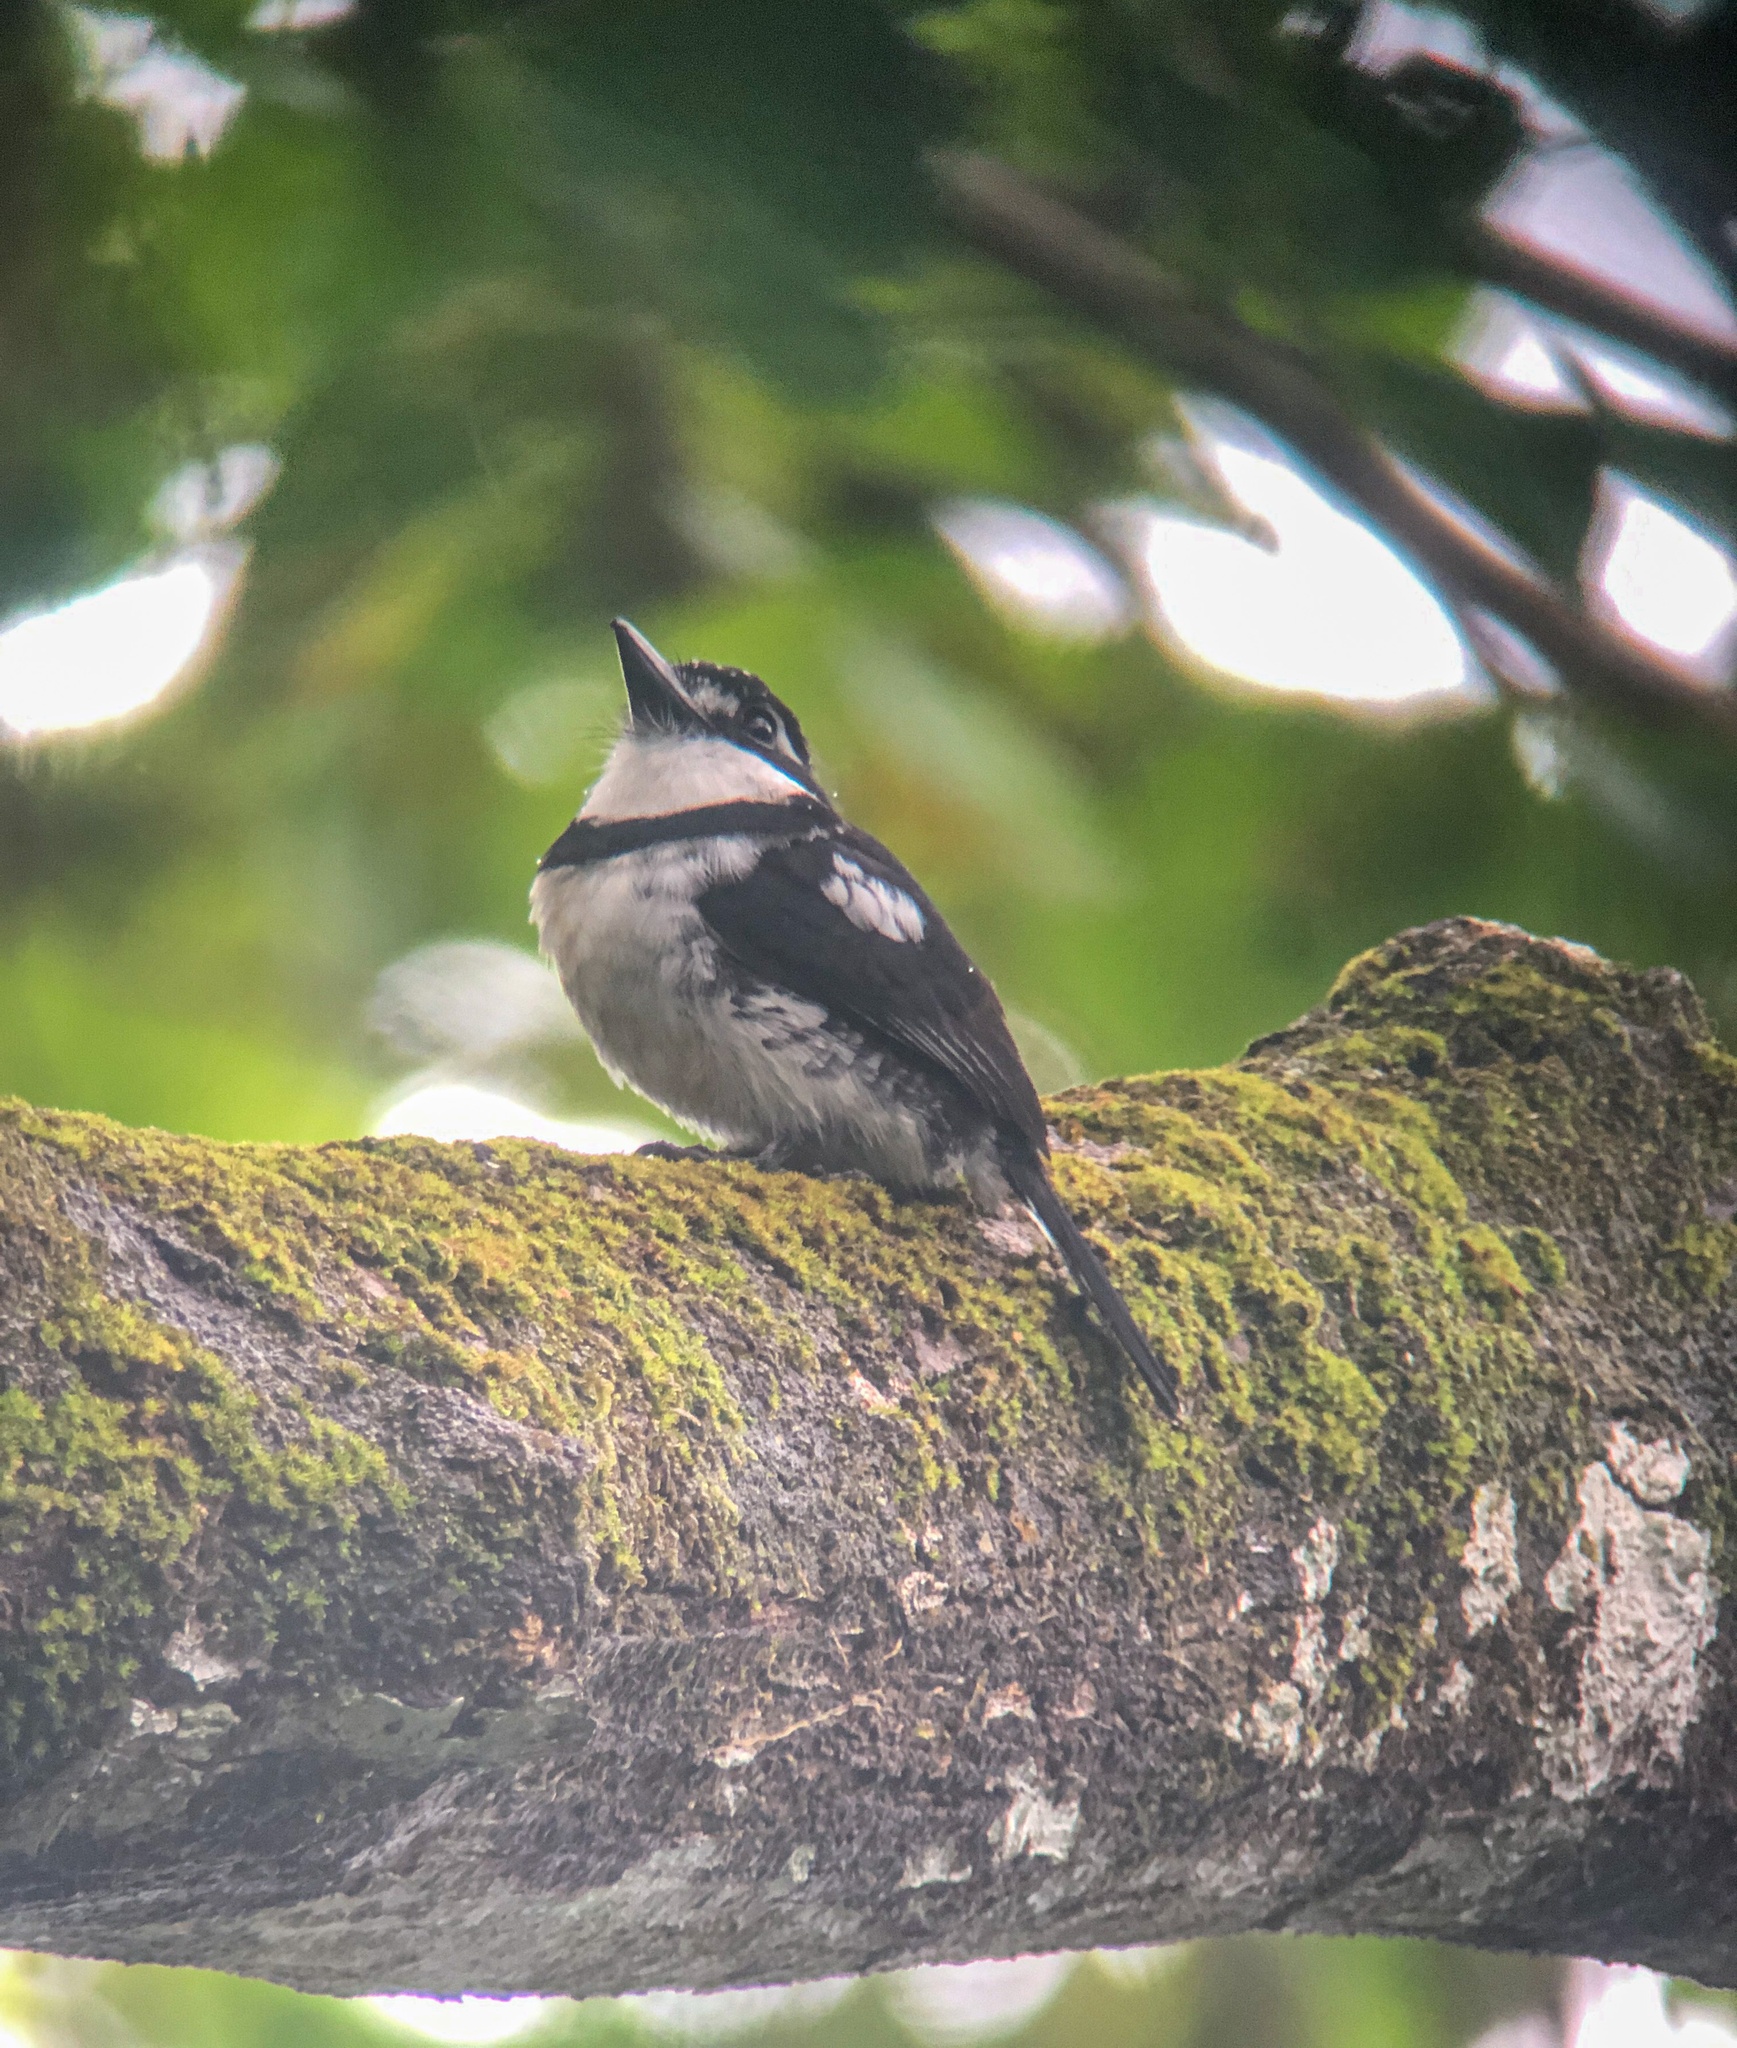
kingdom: Animalia
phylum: Chordata
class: Aves
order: Piciformes
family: Bucconidae
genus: Notharchus
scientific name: Notharchus tectus
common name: Pied puffbird
